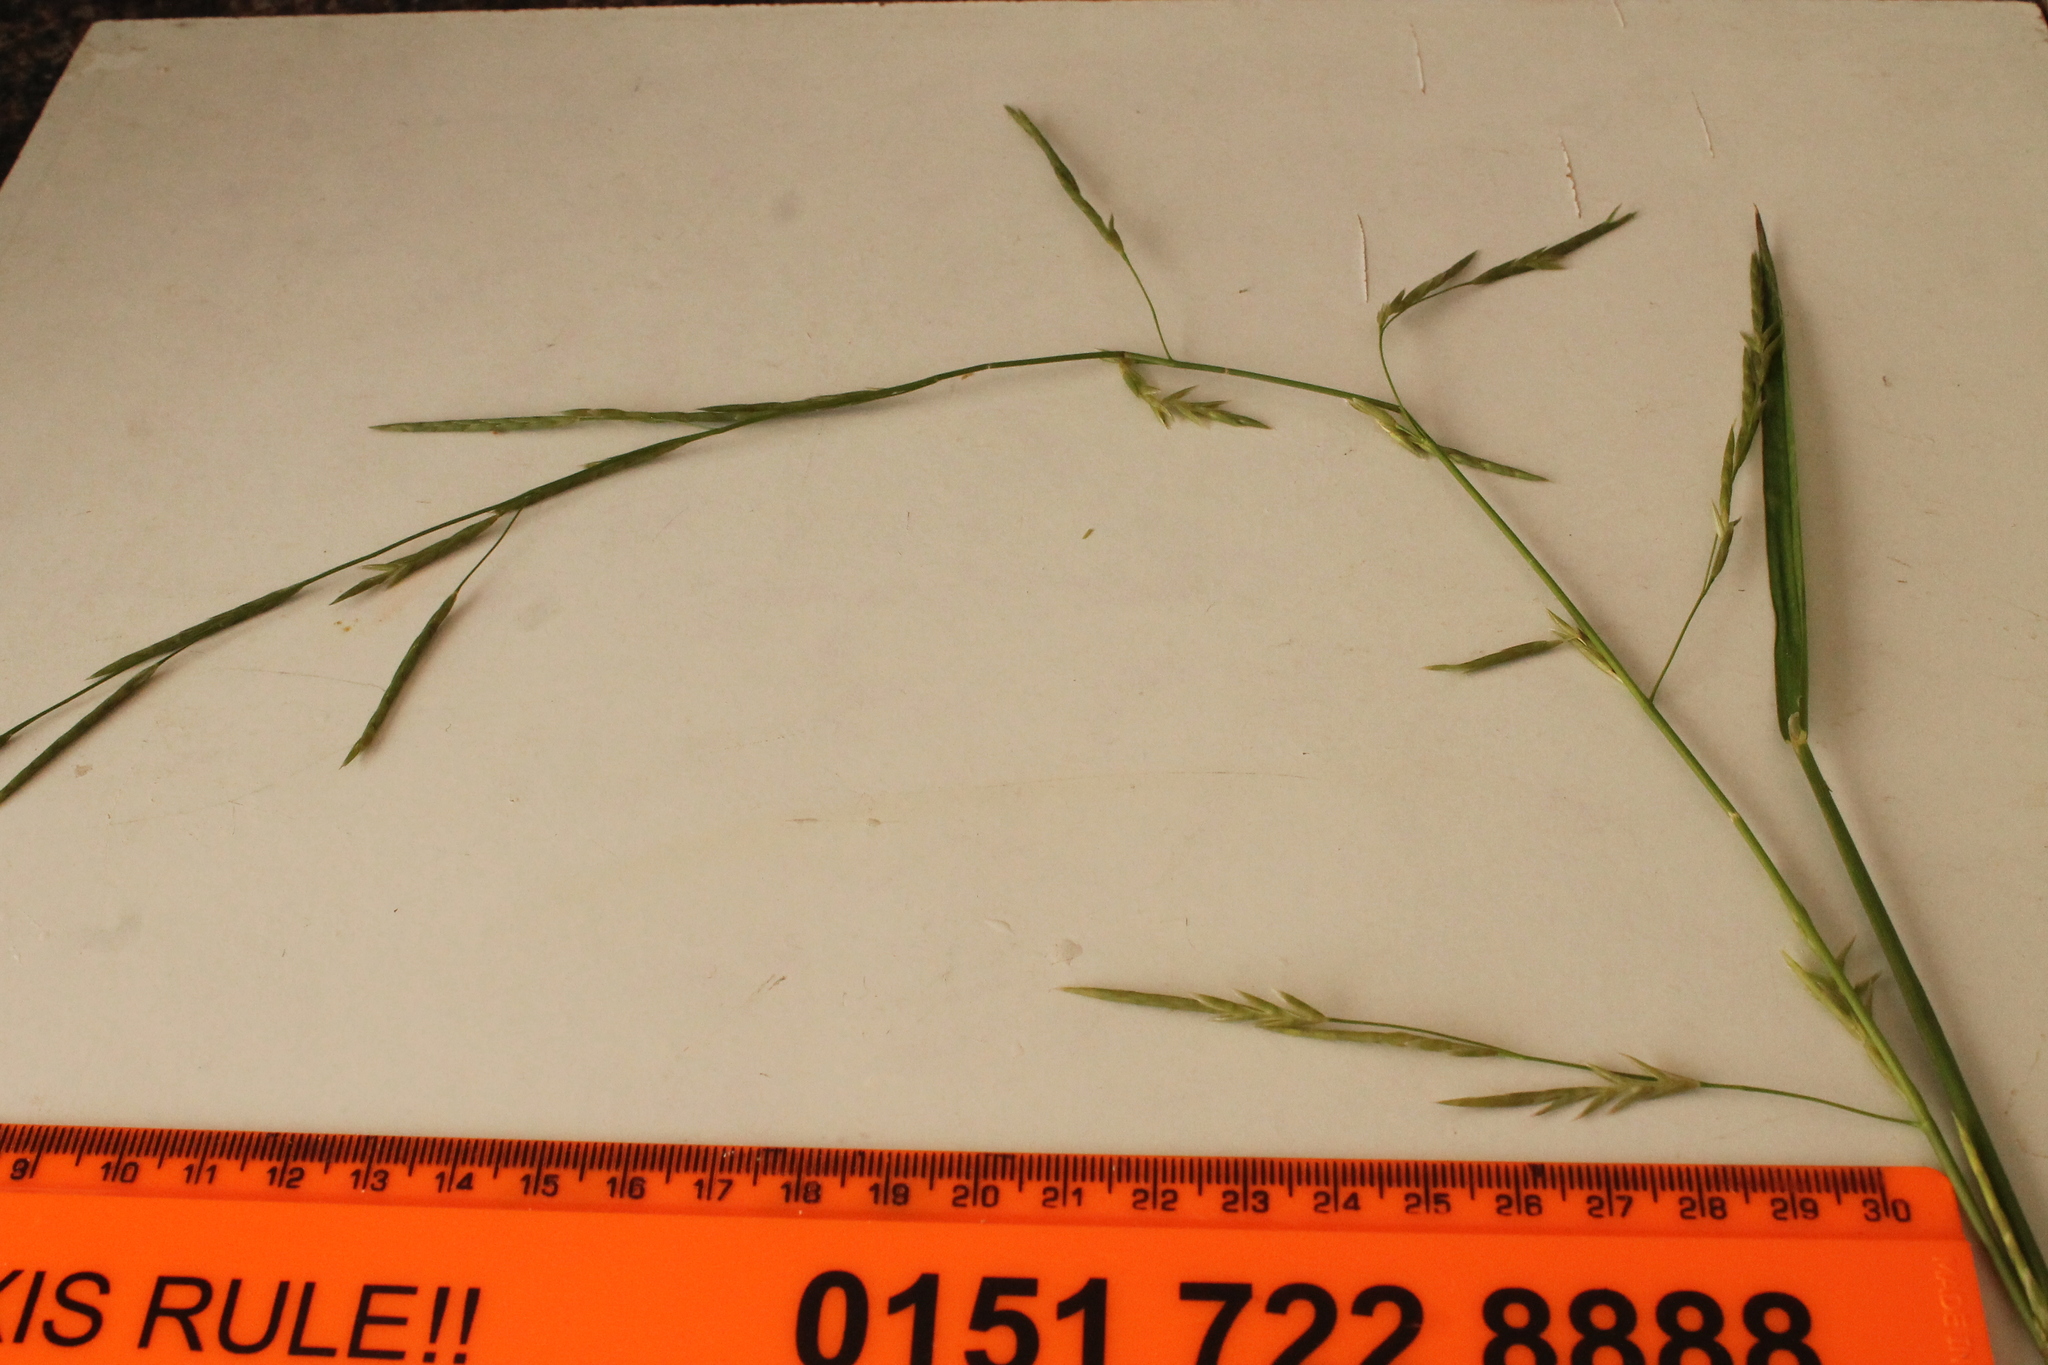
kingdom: Plantae
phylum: Tracheophyta
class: Liliopsida
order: Poales
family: Poaceae
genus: Glyceria
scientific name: Glyceria notata
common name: Plicate sweet-grass
